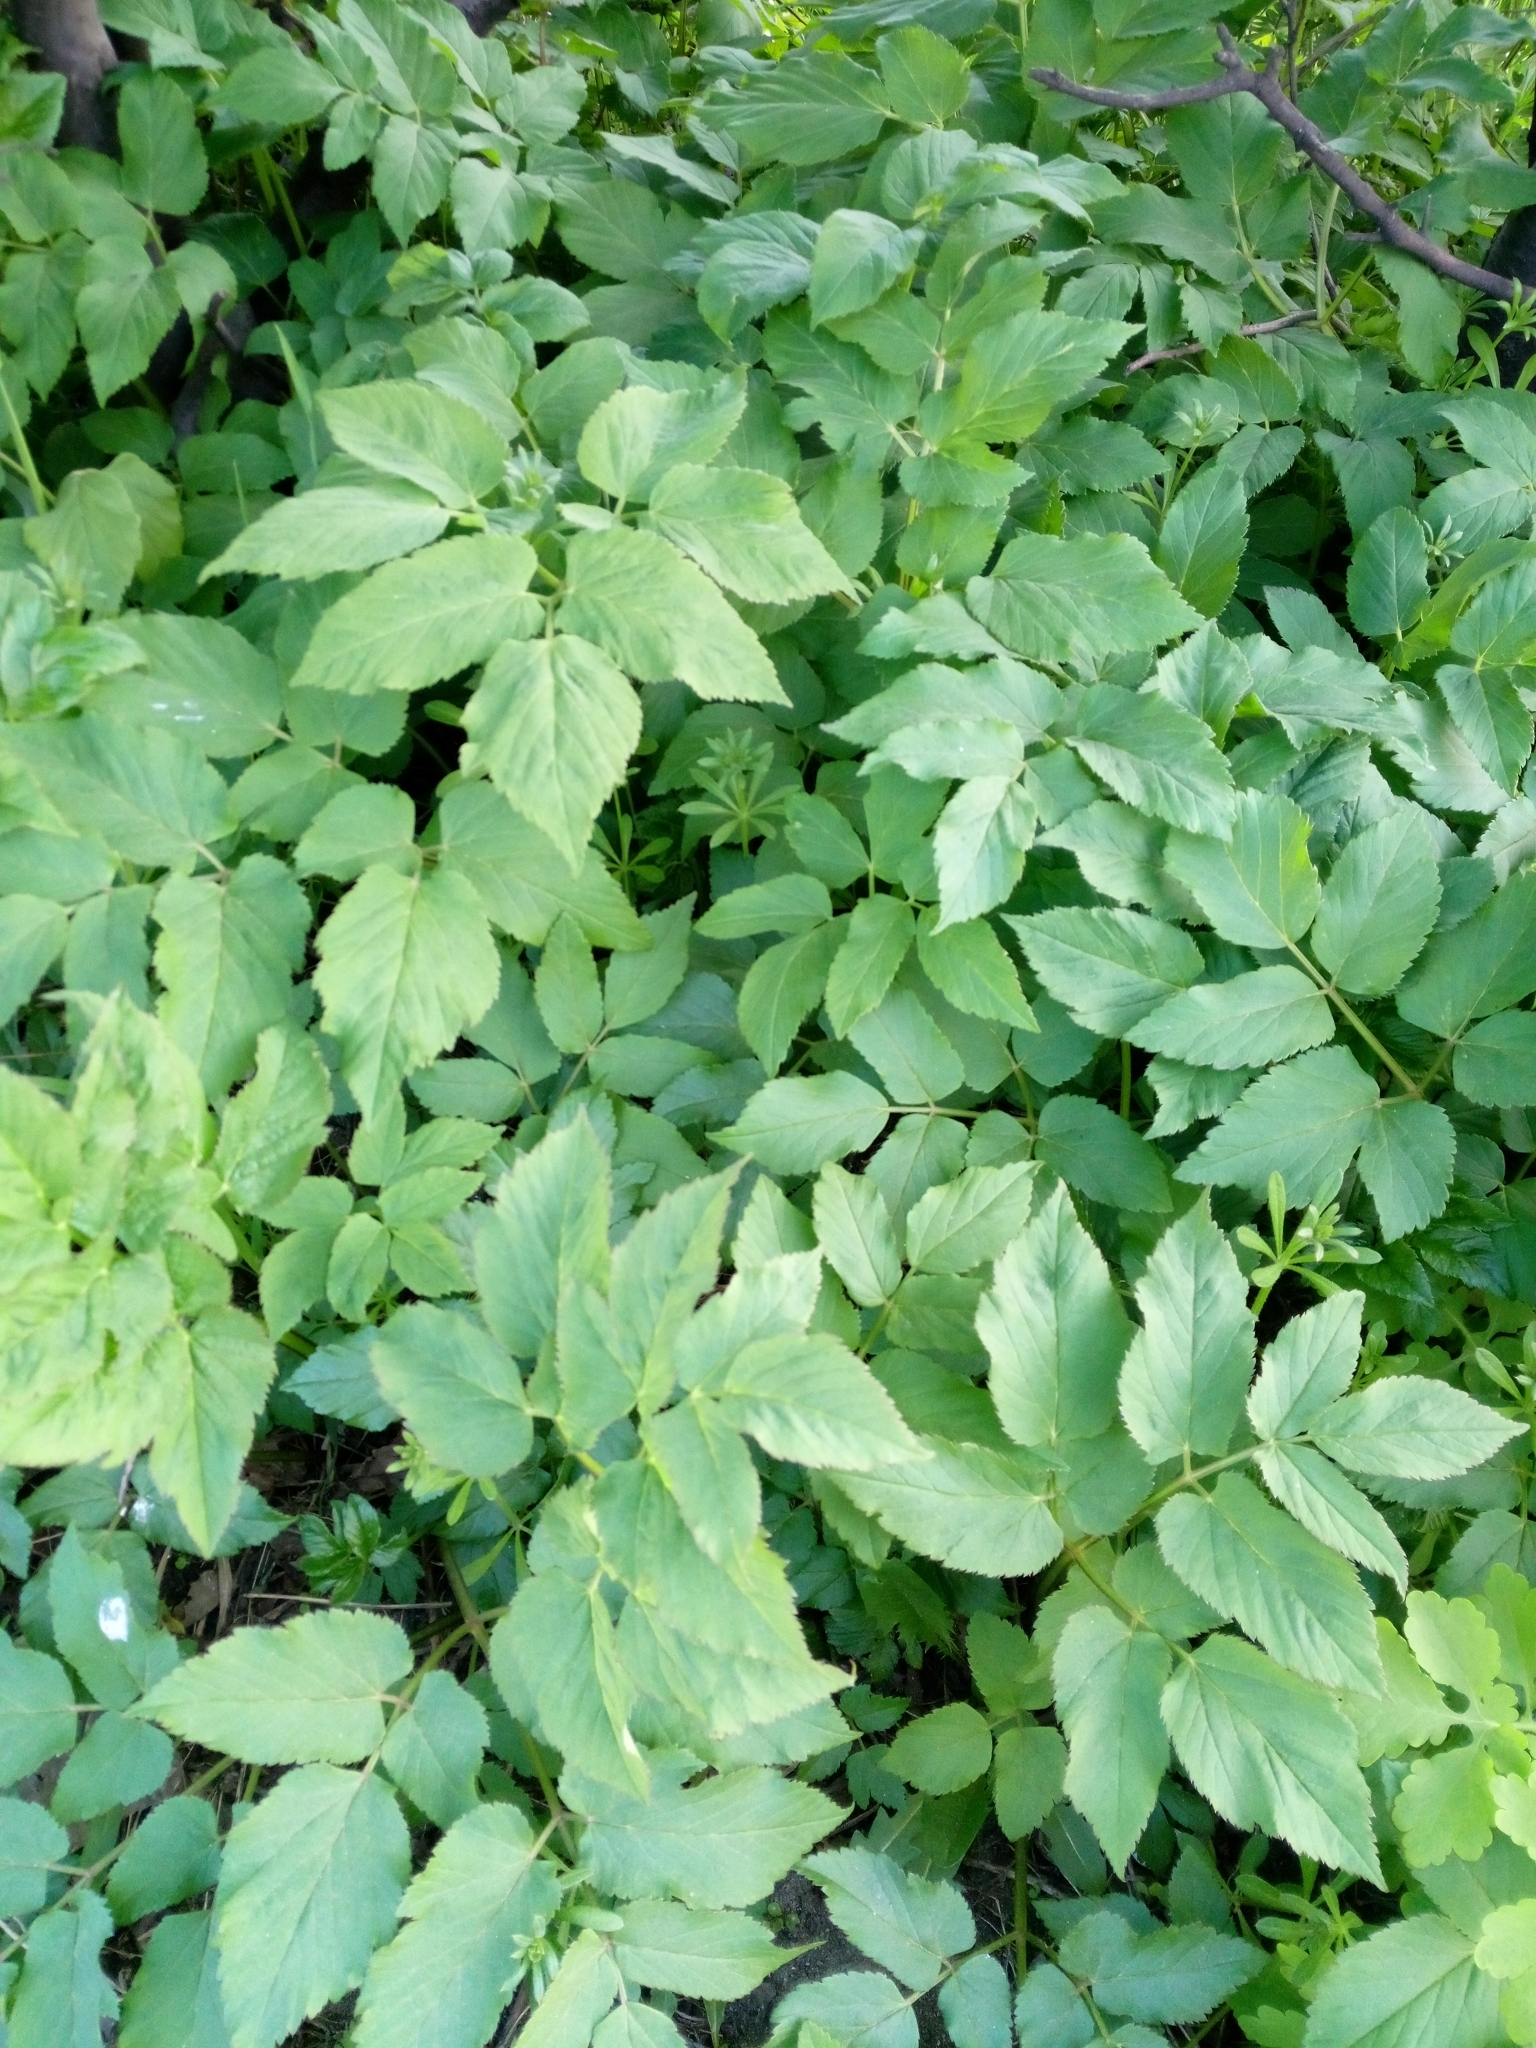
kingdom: Plantae
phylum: Tracheophyta
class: Magnoliopsida
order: Apiales
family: Apiaceae
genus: Aegopodium
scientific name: Aegopodium podagraria
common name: Ground-elder
